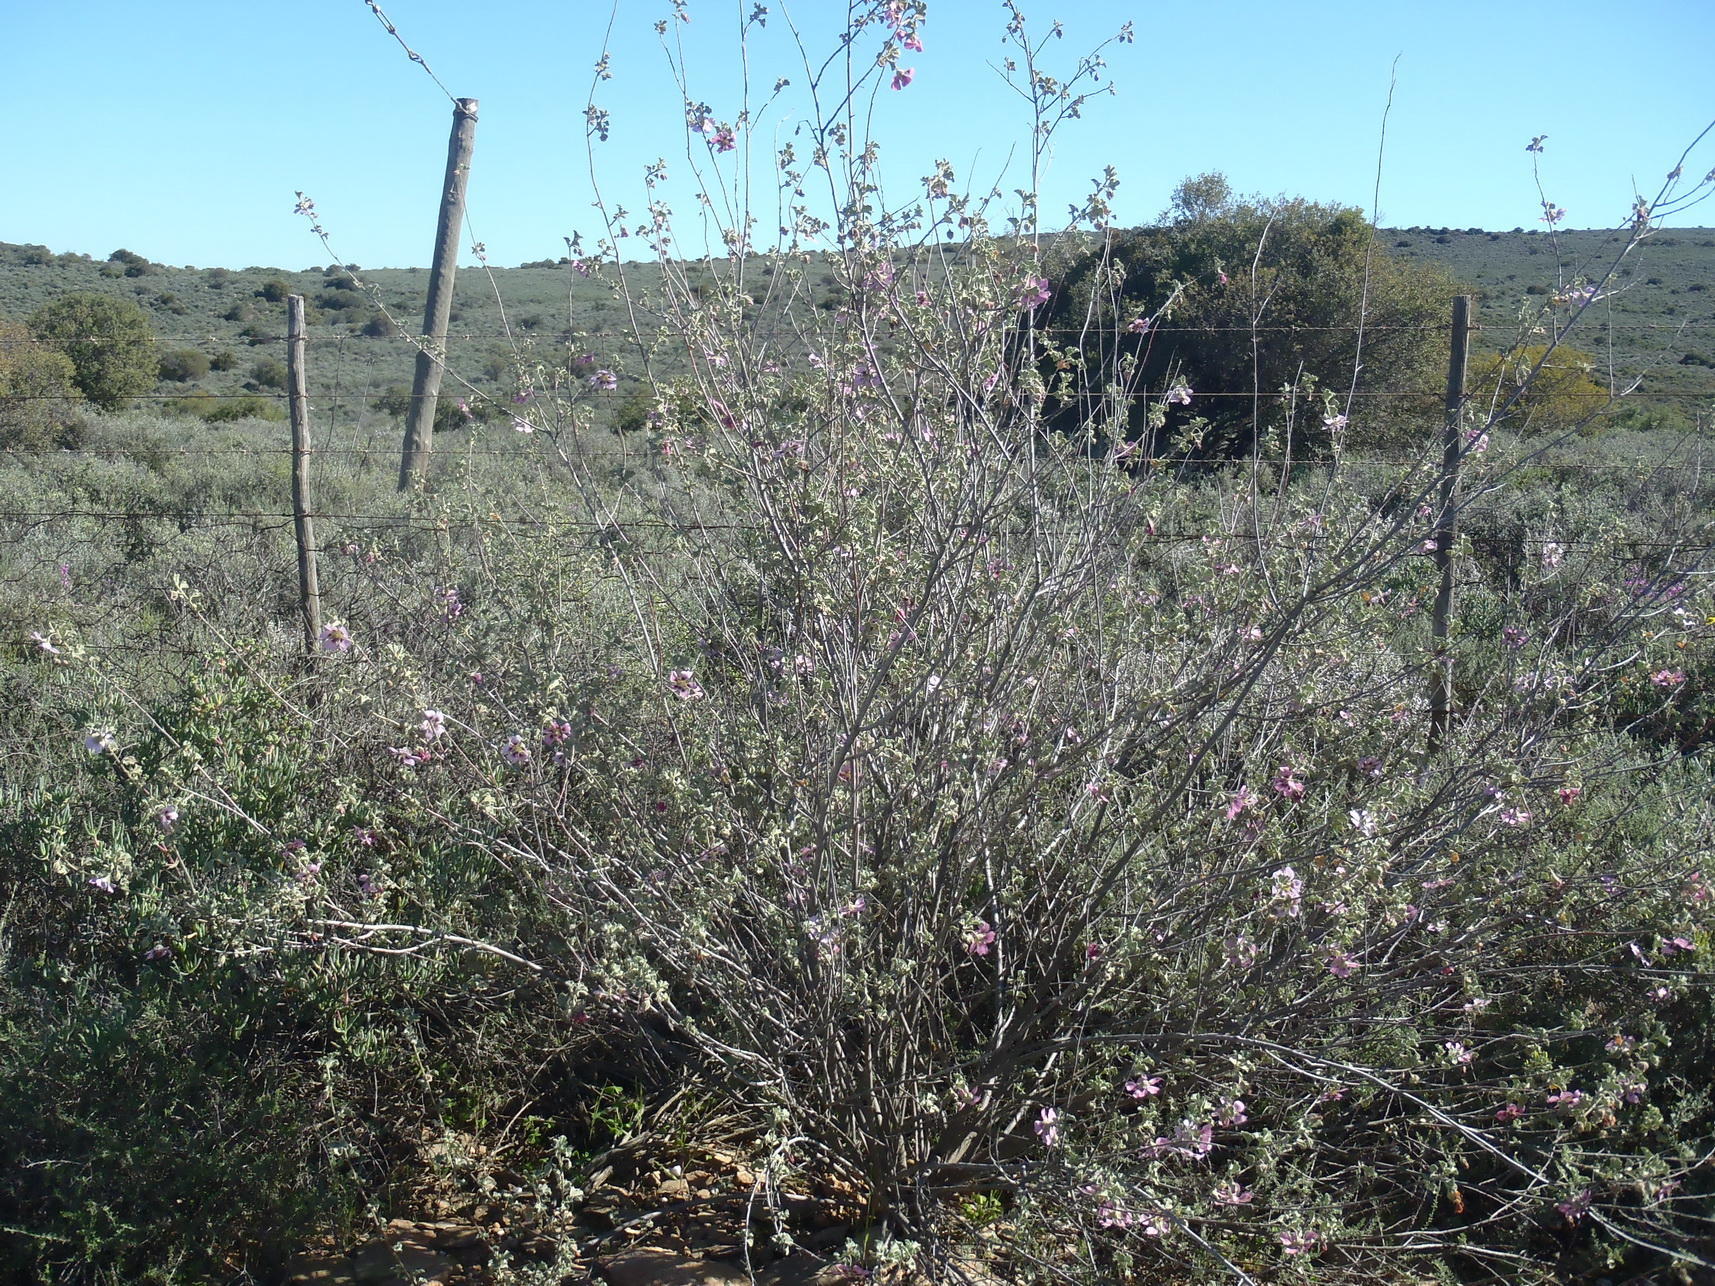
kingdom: Plantae
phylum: Tracheophyta
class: Magnoliopsida
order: Malvales
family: Malvaceae
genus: Anisodontea
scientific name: Anisodontea triloba
